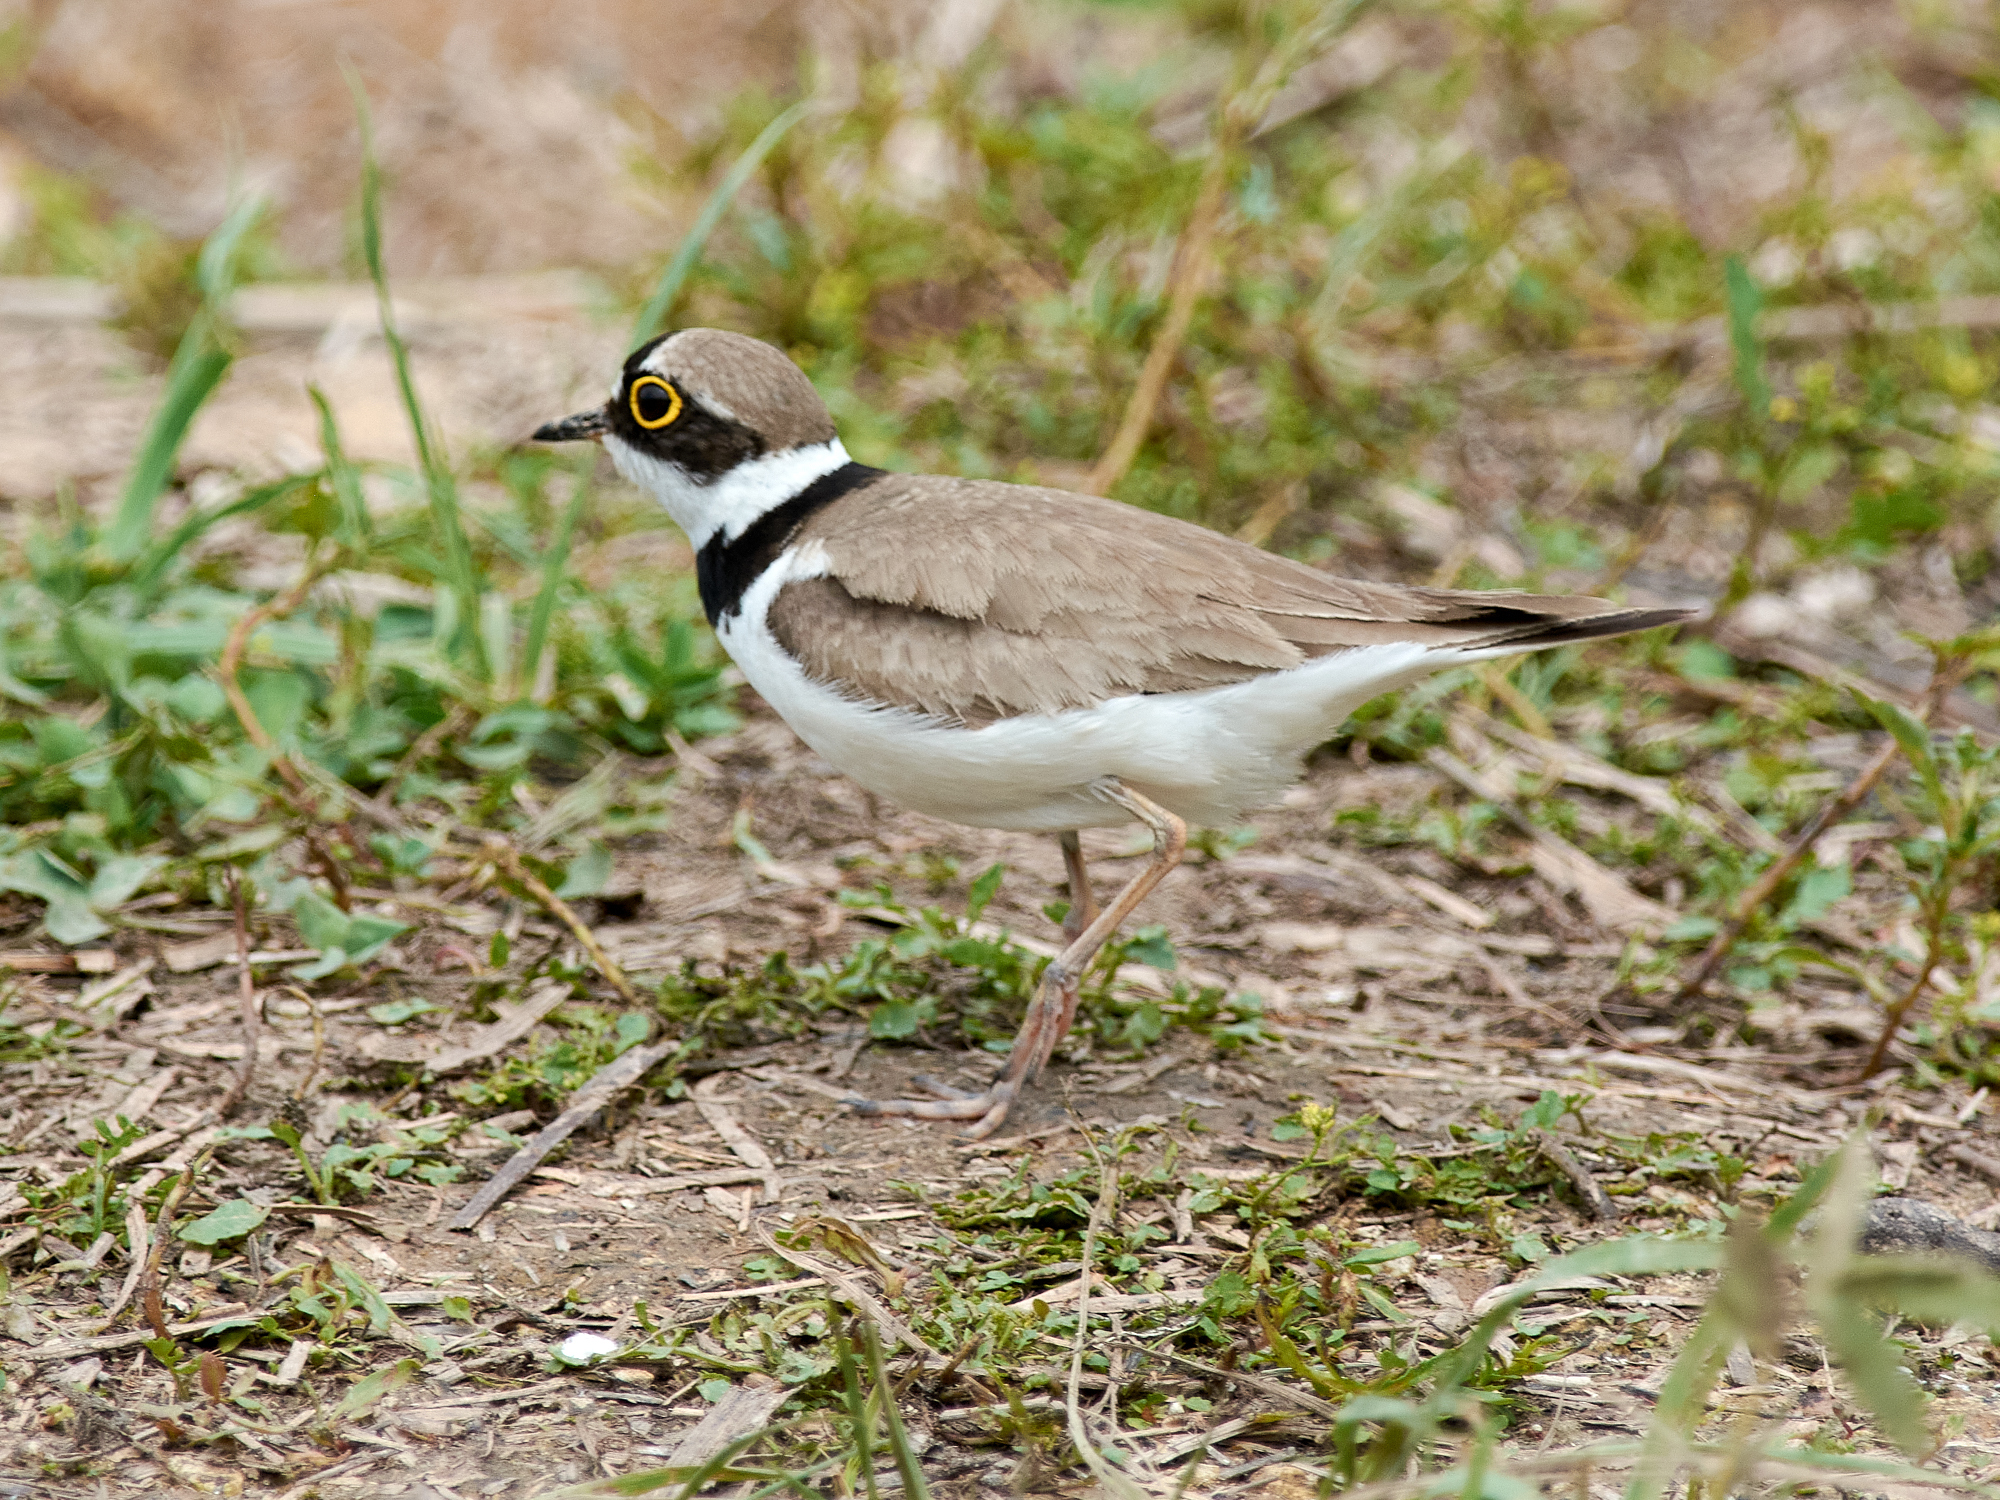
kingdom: Animalia
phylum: Chordata
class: Aves
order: Charadriiformes
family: Charadriidae
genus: Charadrius
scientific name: Charadrius dubius
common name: Little ringed plover
